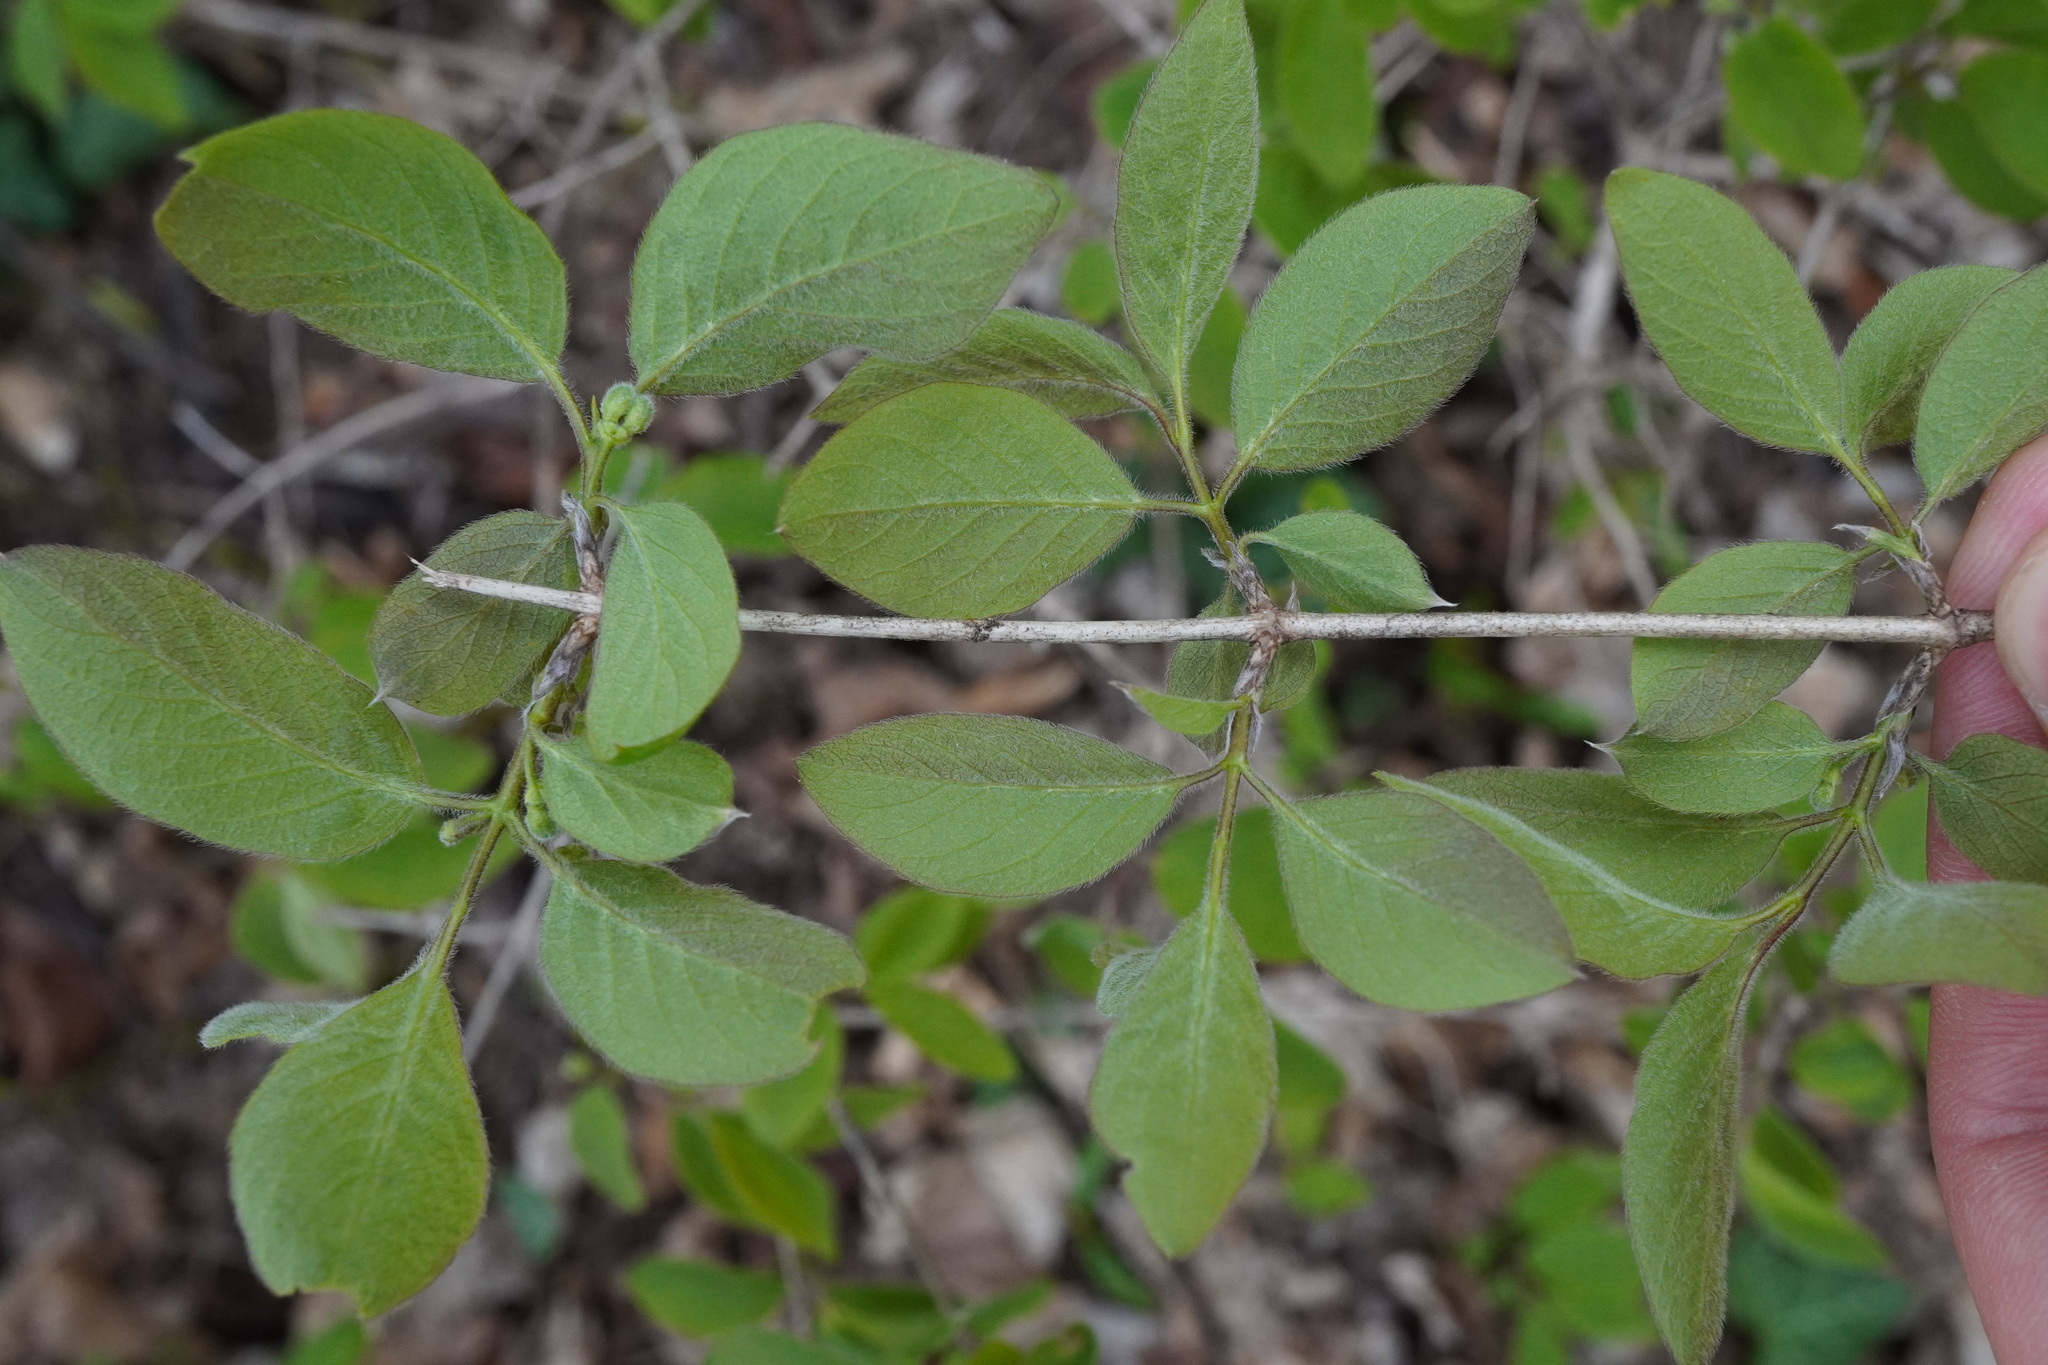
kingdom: Plantae
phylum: Tracheophyta
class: Magnoliopsida
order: Dipsacales
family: Caprifoliaceae
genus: Lonicera
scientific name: Lonicera xylosteum
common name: Fly honeysuckle
